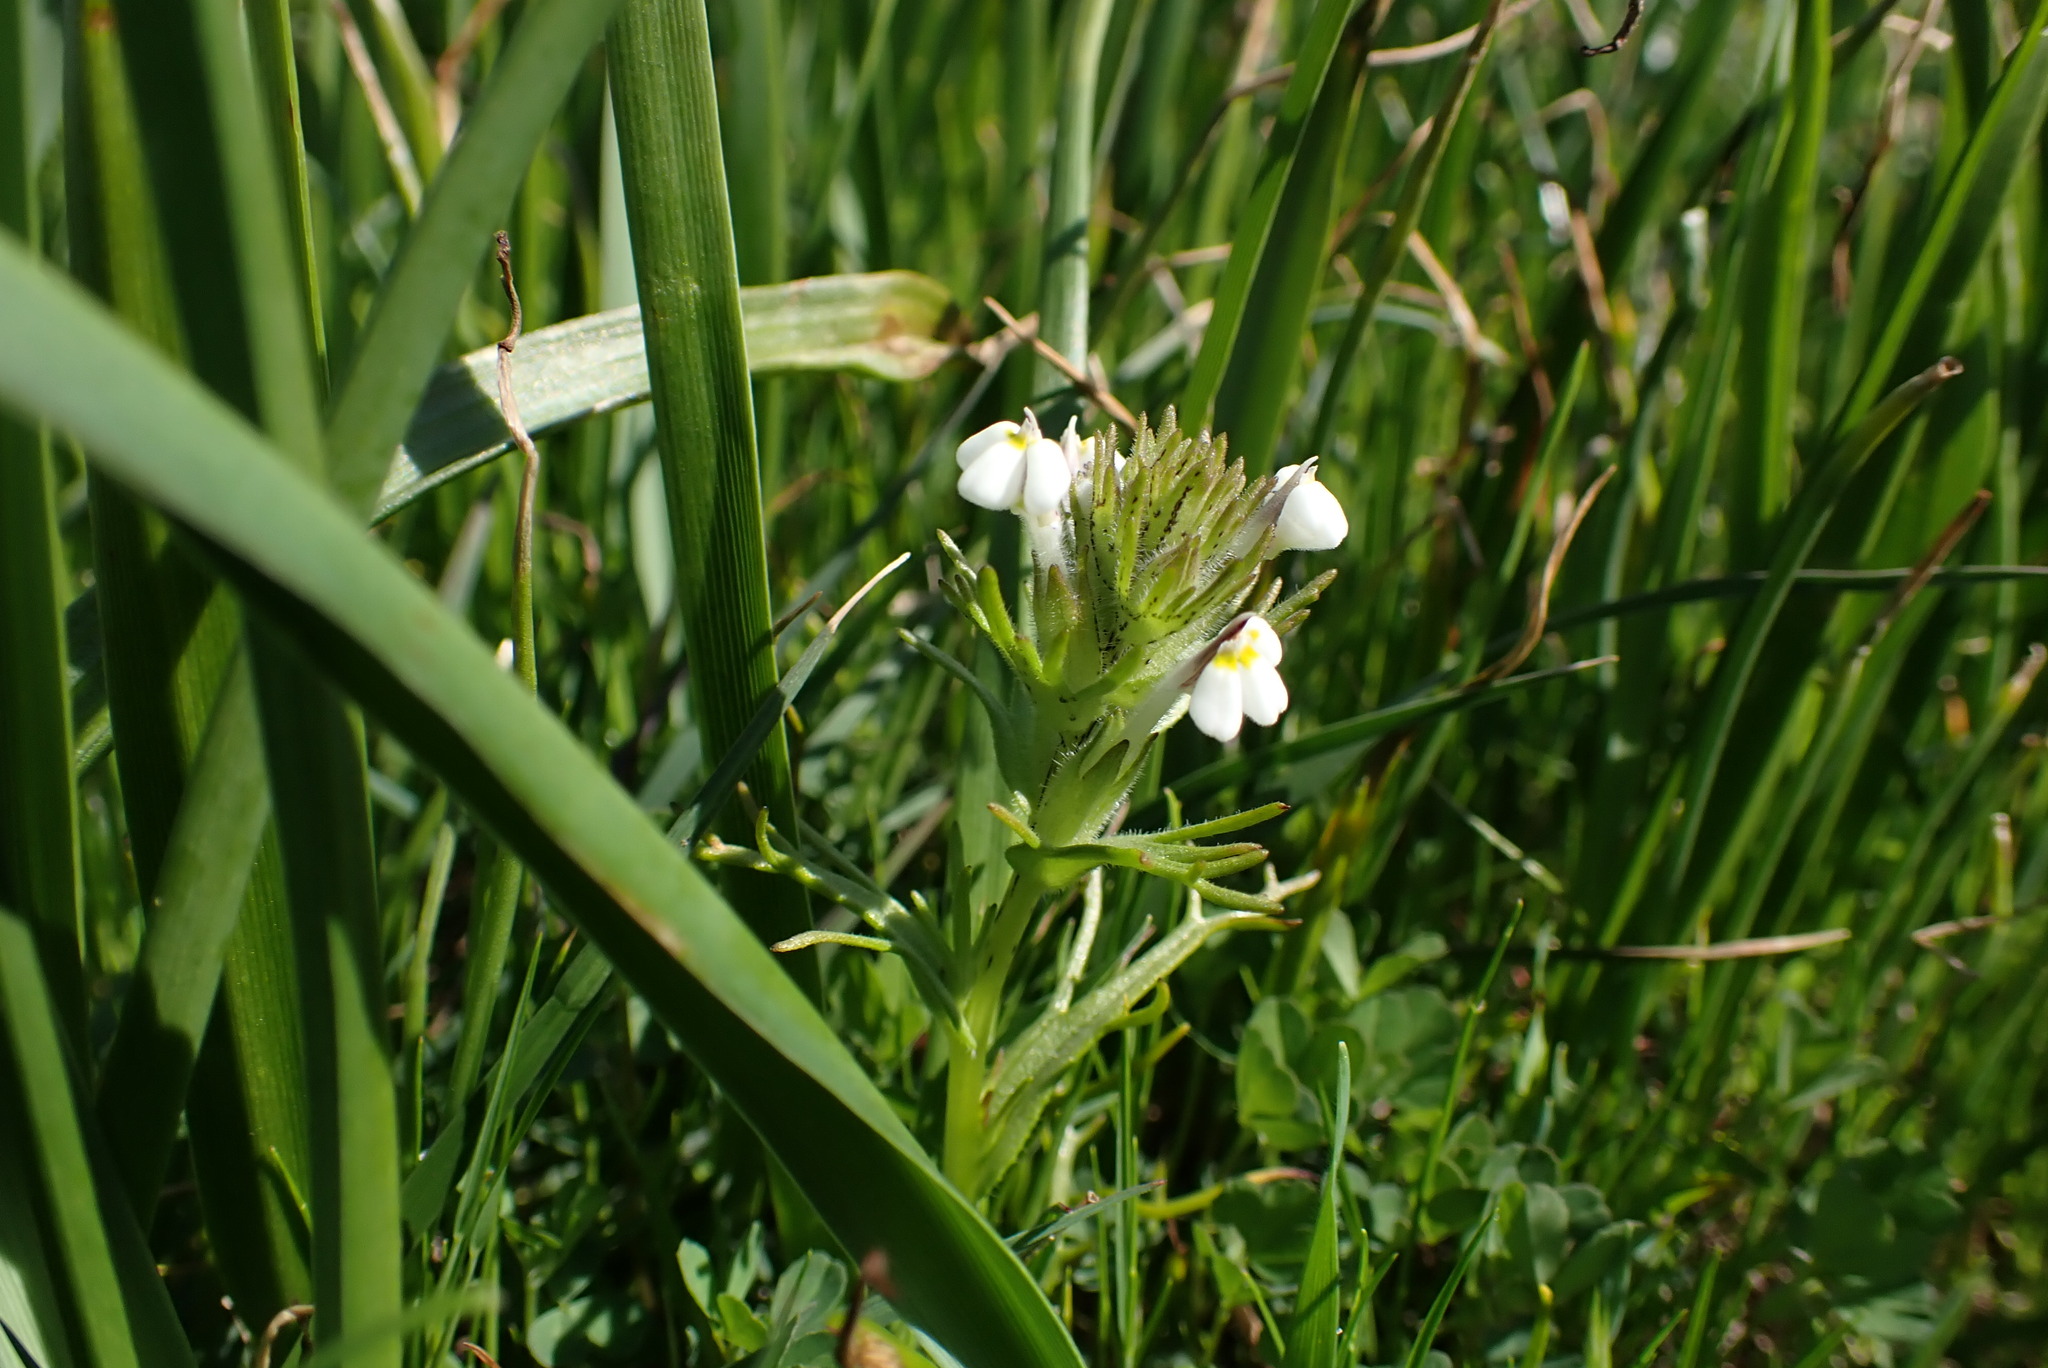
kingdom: Plantae
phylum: Tracheophyta
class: Magnoliopsida
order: Lamiales
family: Orobanchaceae
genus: Triphysaria
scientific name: Triphysaria versicolor
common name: Bearded false owl-clover
